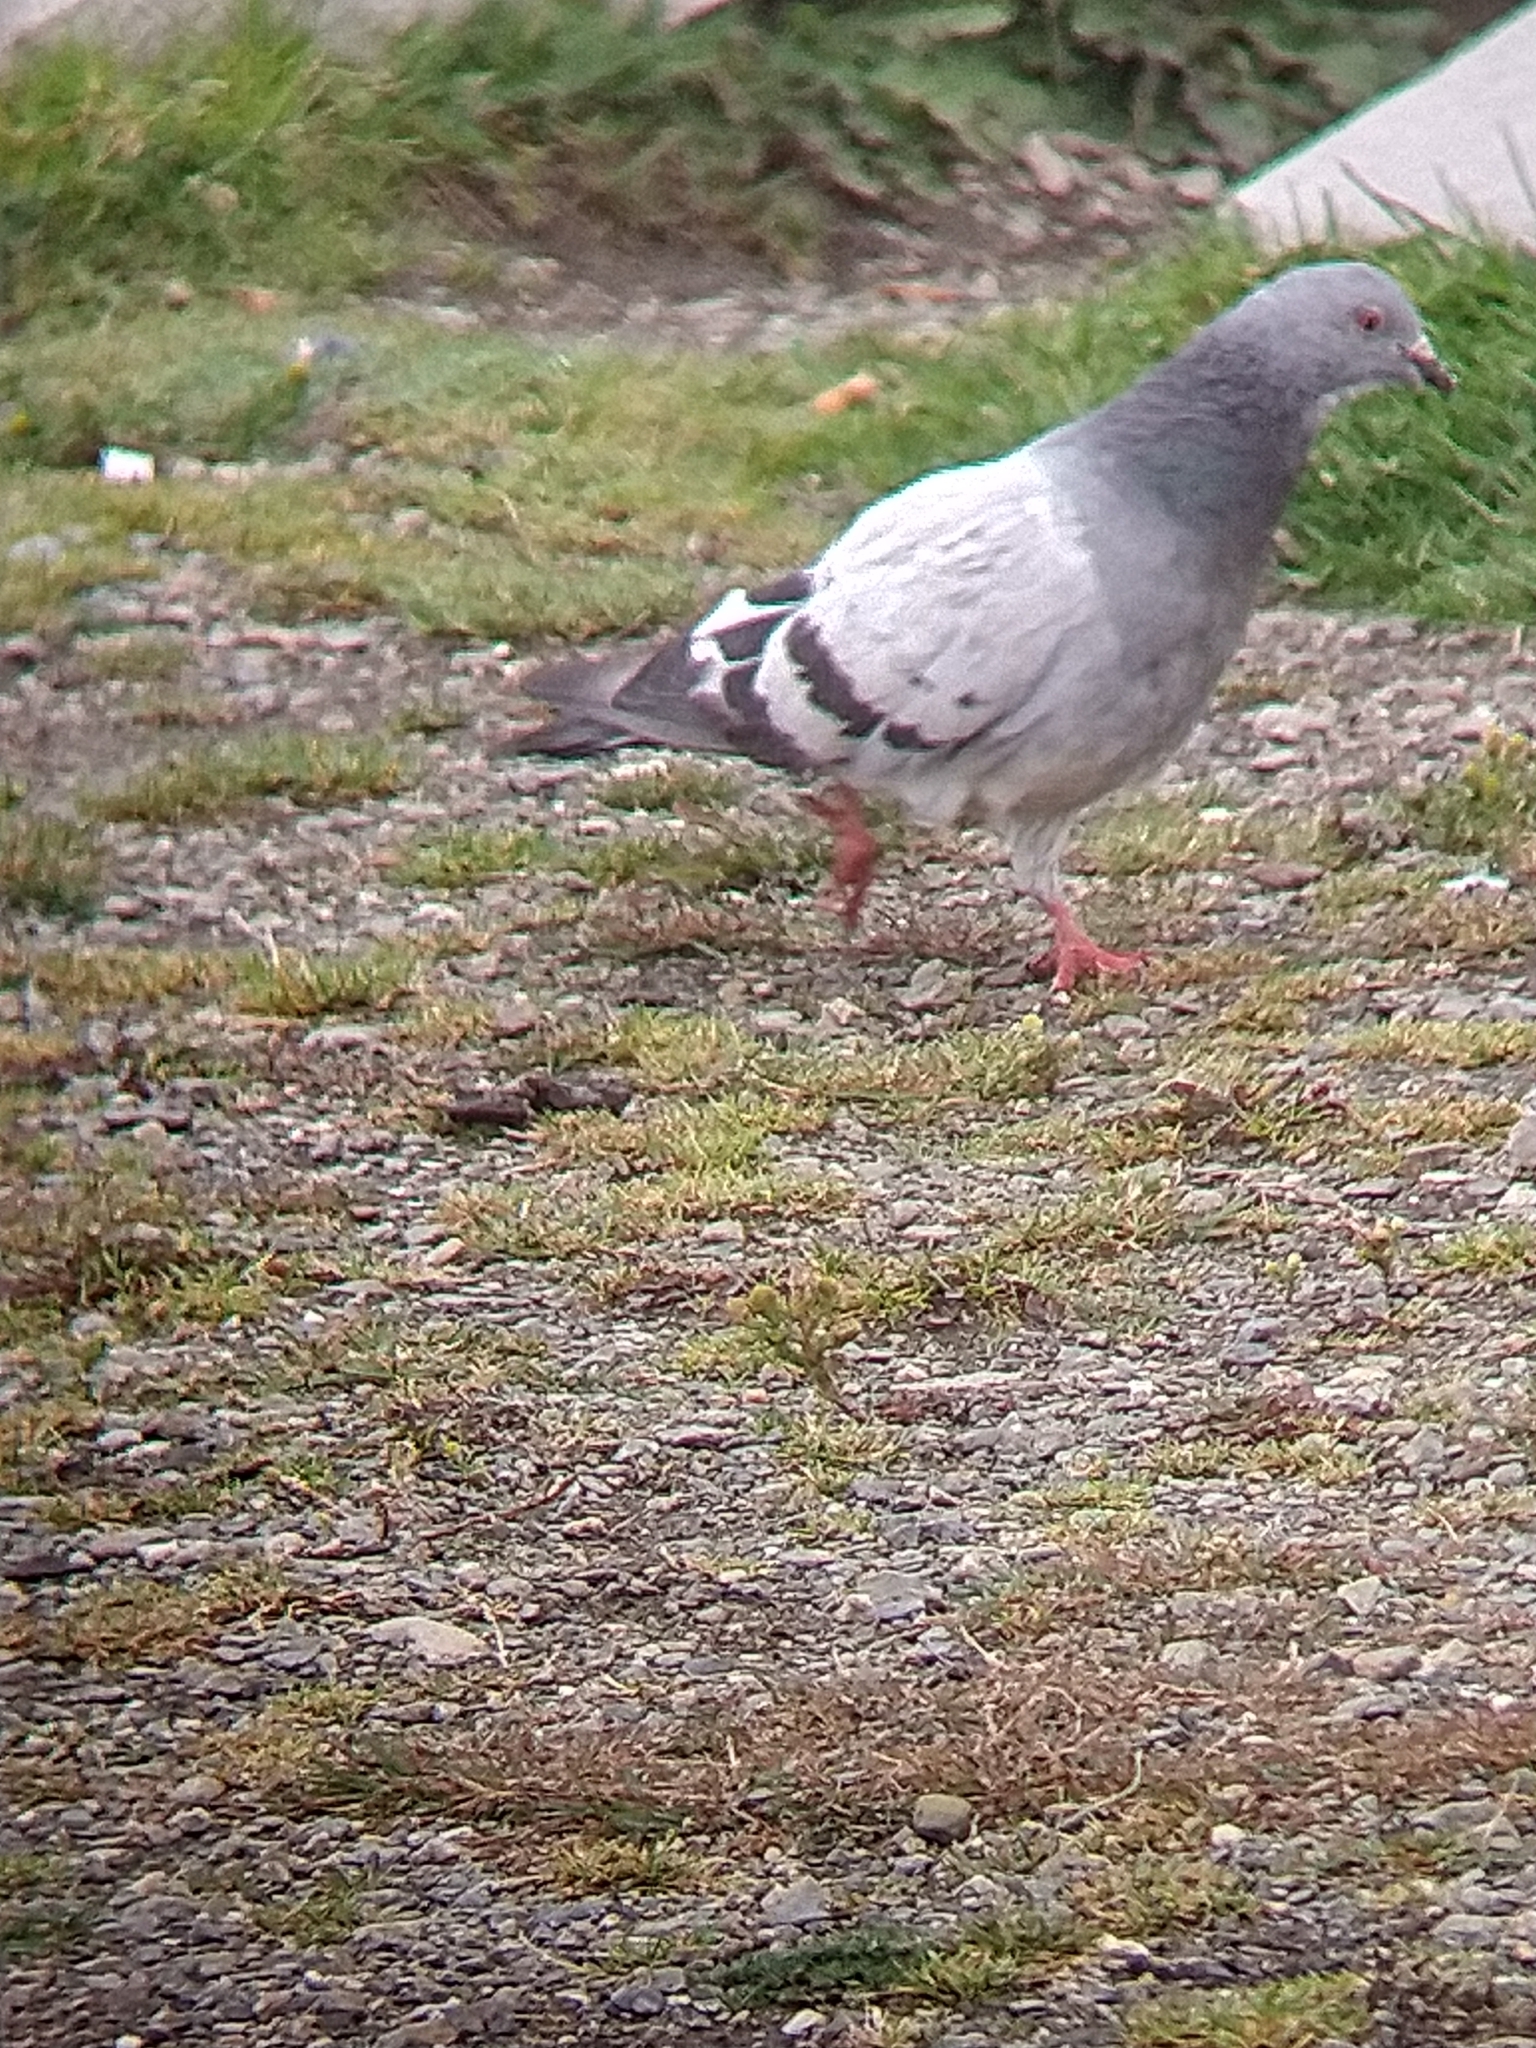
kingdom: Animalia
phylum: Chordata
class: Aves
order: Columbiformes
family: Columbidae
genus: Columba
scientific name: Columba livia
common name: Rock pigeon
